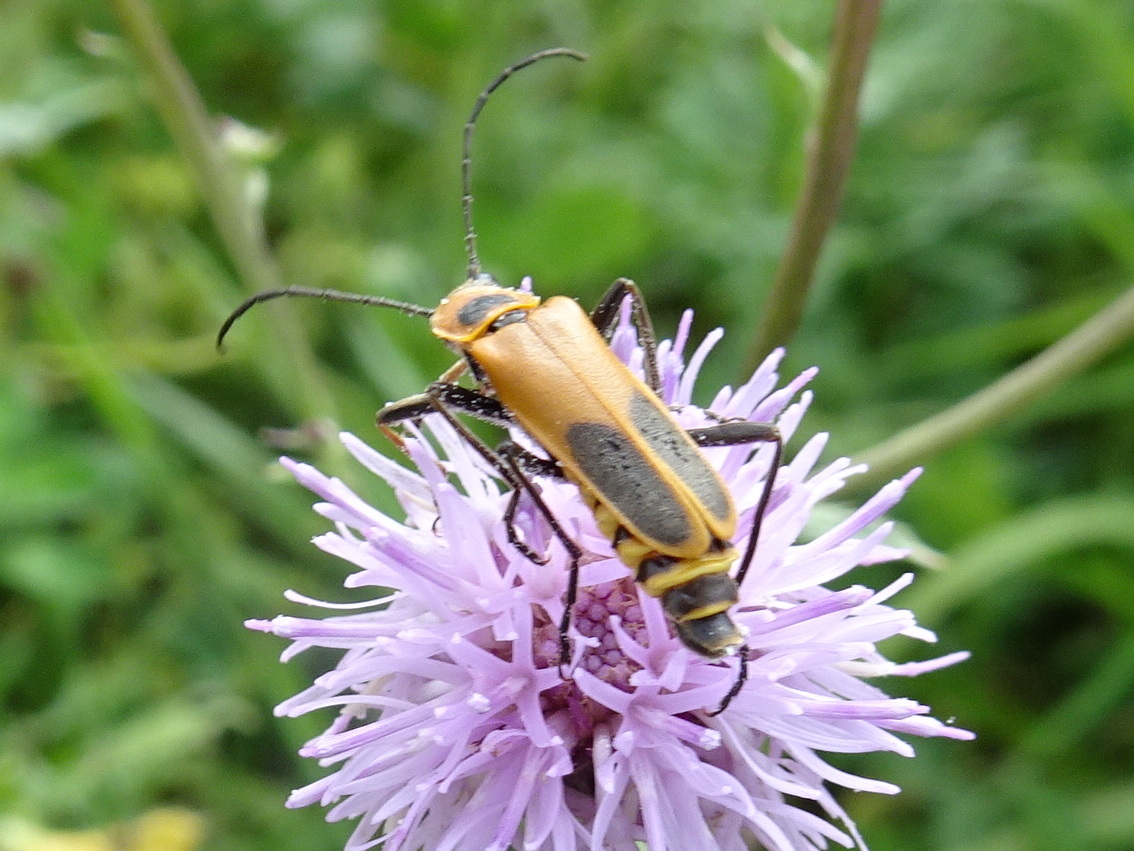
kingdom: Animalia
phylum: Arthropoda
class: Insecta
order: Coleoptera
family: Cantharidae
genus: Chauliognathus
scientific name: Chauliognathus pensylvanicus
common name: Goldenrod soldier beetle
